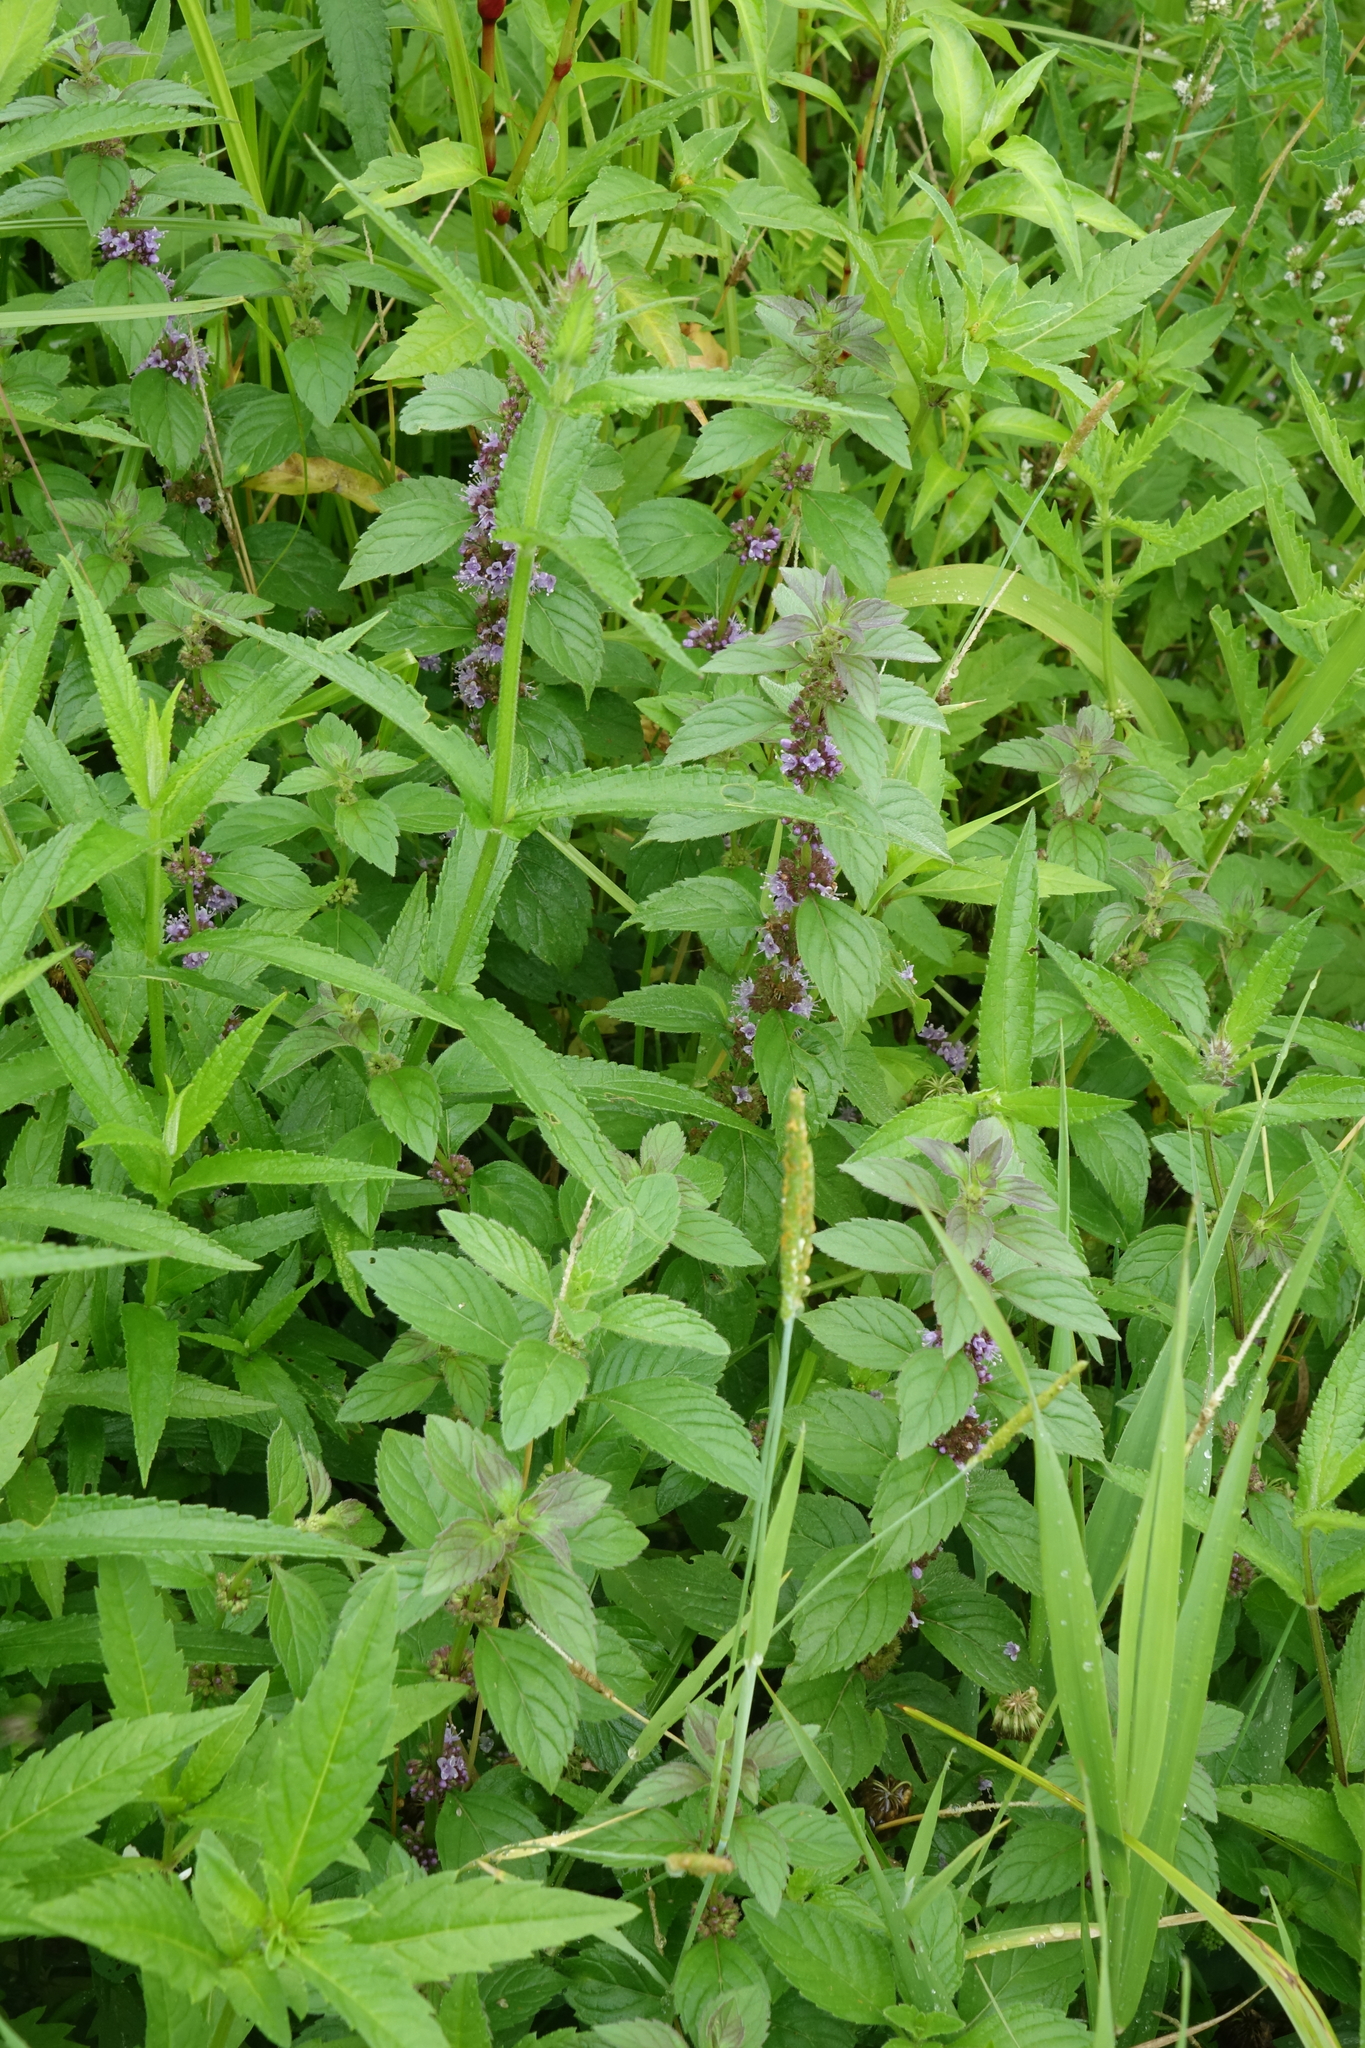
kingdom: Plantae
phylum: Tracheophyta
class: Magnoliopsida
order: Lamiales
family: Lamiaceae
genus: Mentha
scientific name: Mentha arvensis
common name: Corn mint
